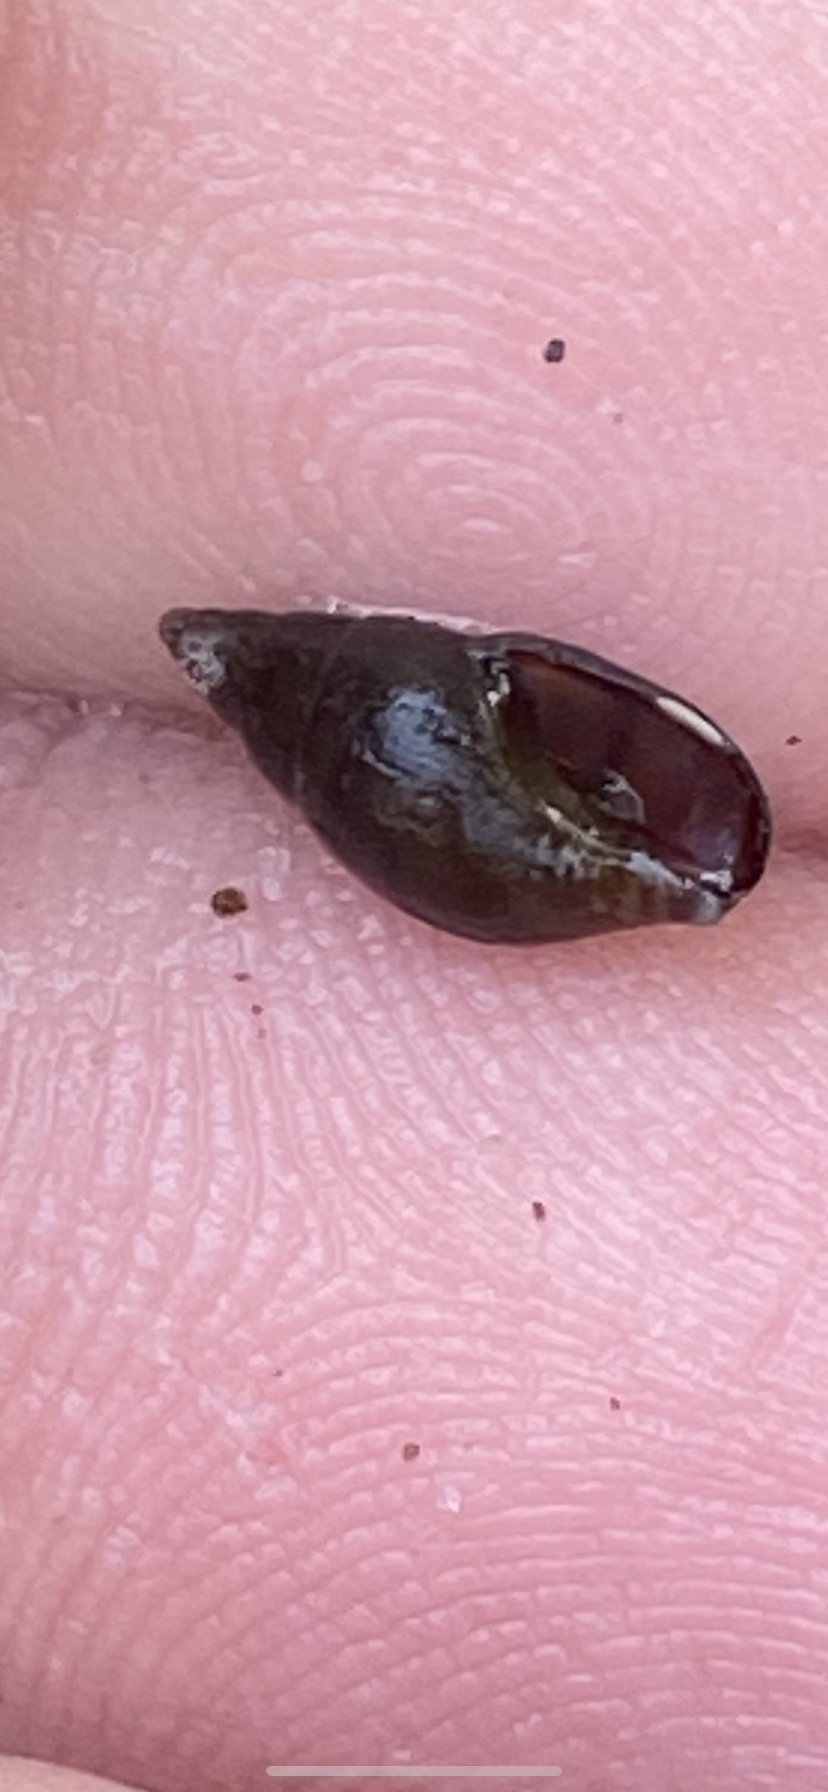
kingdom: Animalia
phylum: Mollusca
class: Gastropoda
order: Neogastropoda
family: Columbellidae
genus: Alia
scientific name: Alia carinata
